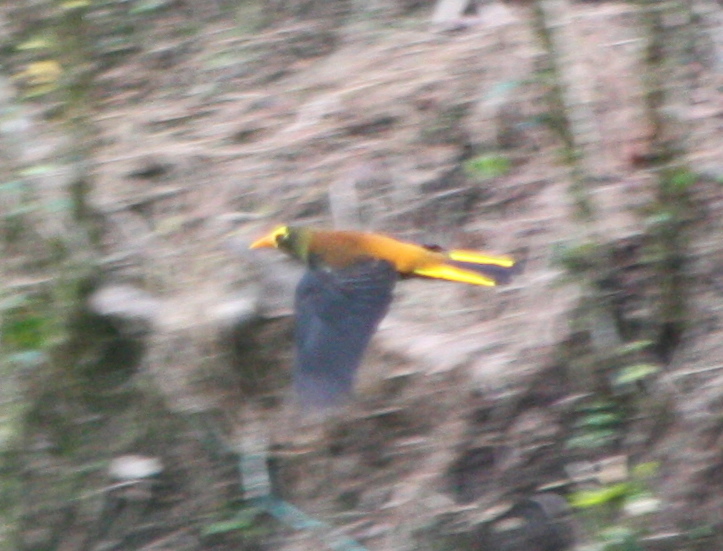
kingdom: Animalia
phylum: Chordata
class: Aves
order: Passeriformes
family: Icteridae
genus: Psarocolius
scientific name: Psarocolius angustifrons
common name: Russet-backed oropendola
